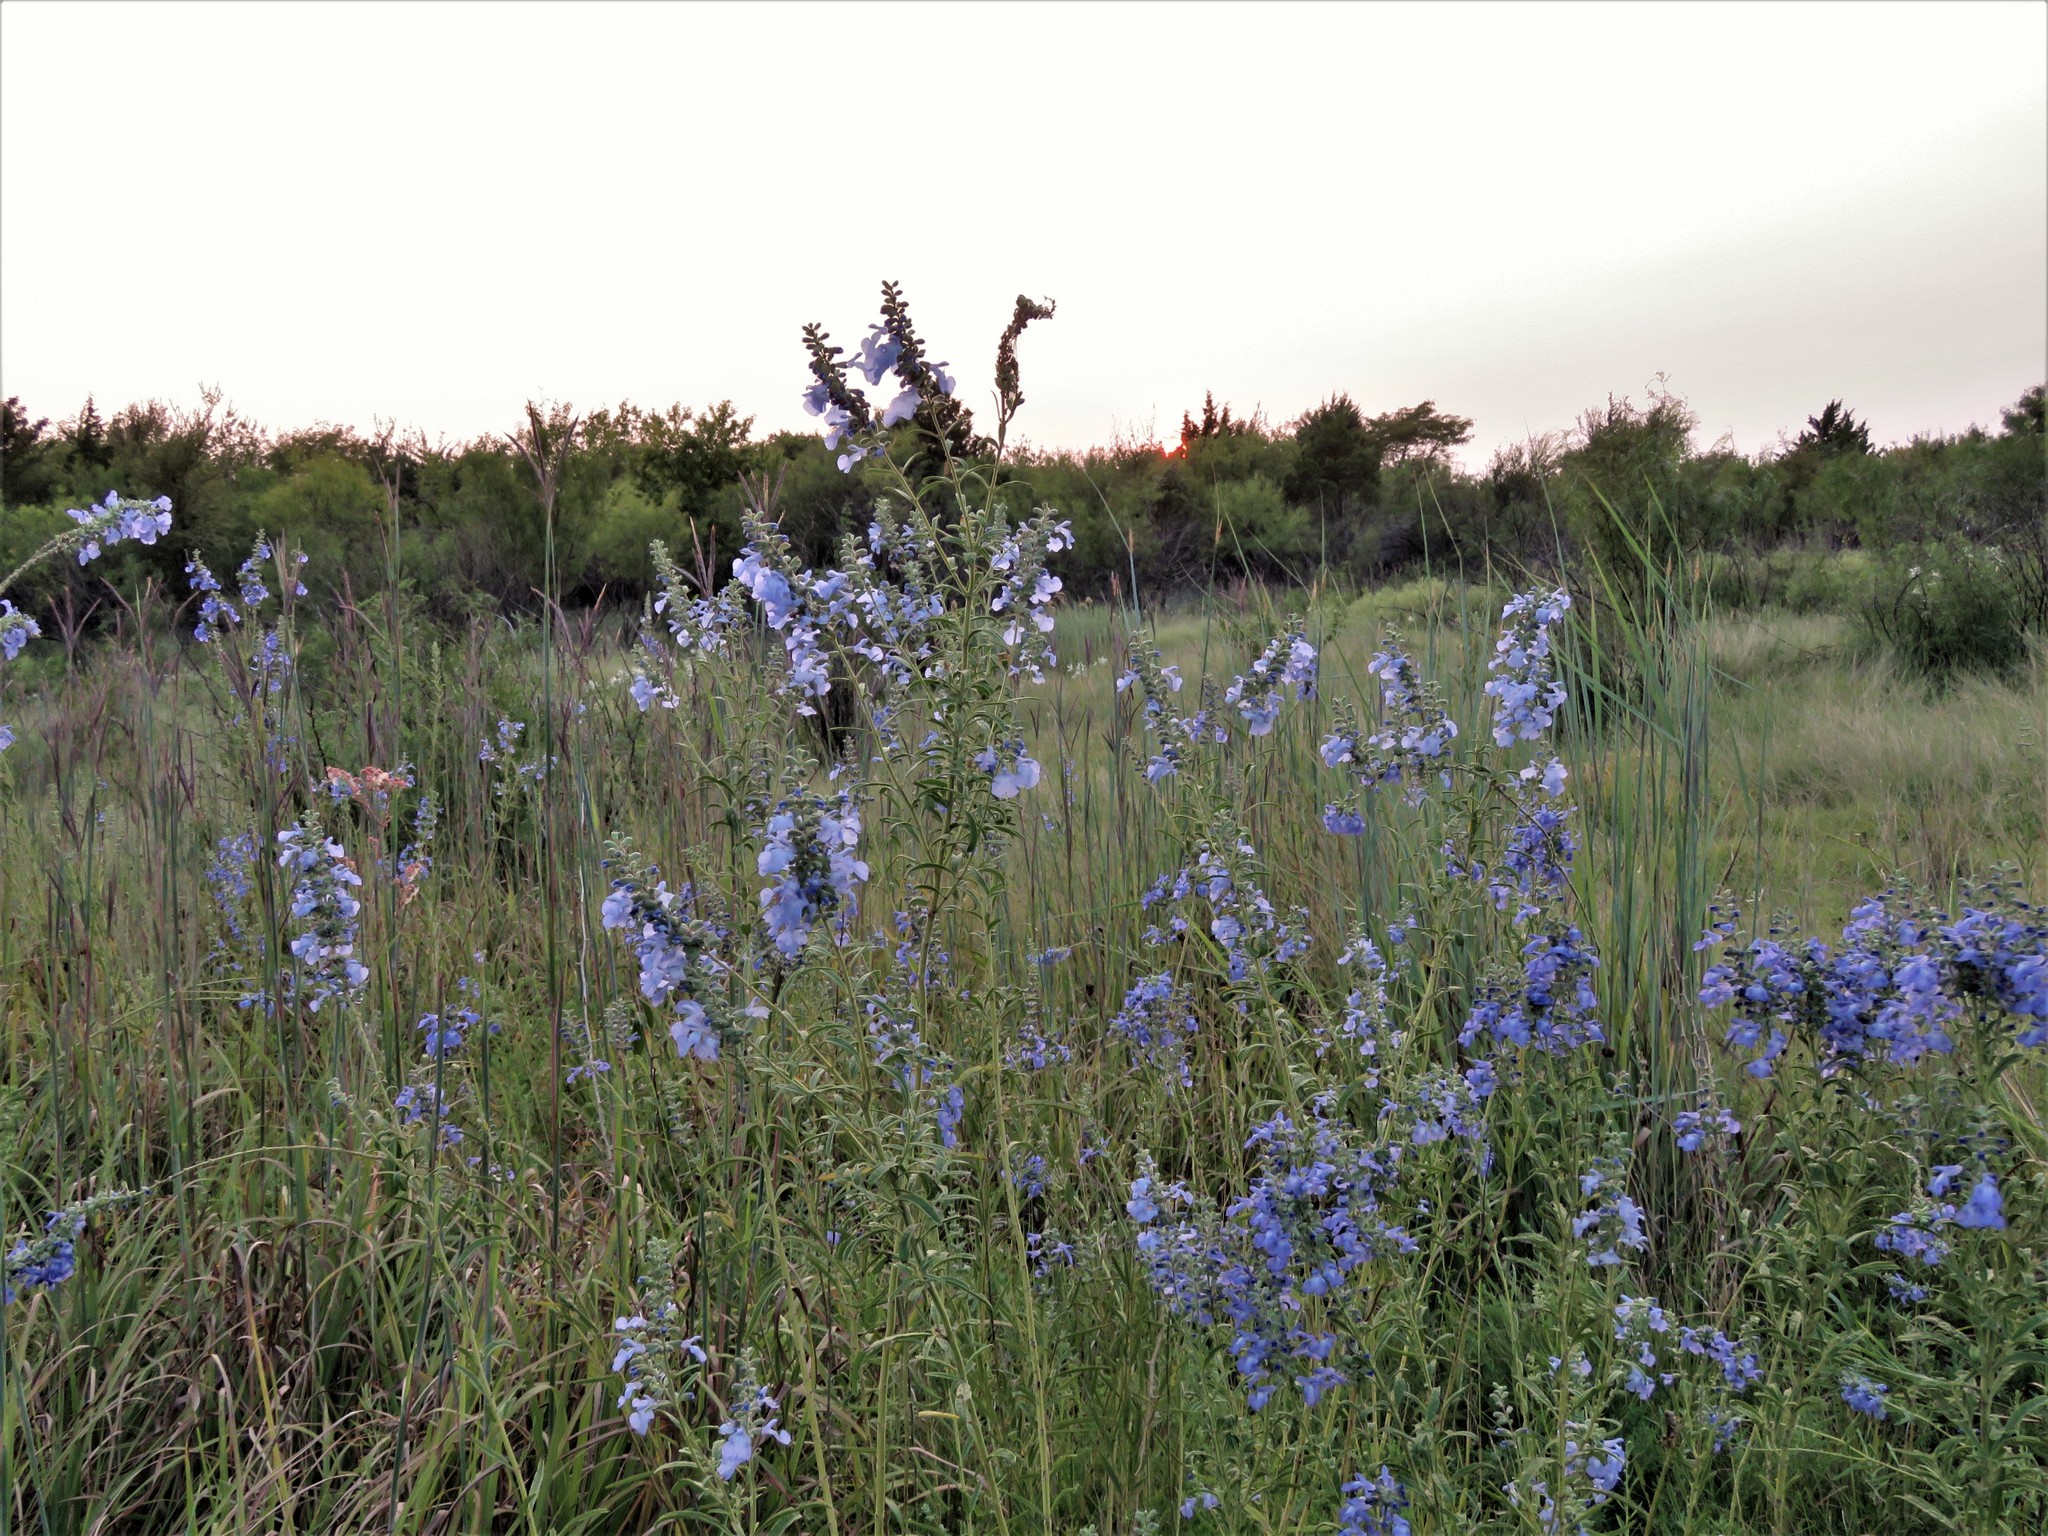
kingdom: Plantae
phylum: Tracheophyta
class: Magnoliopsida
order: Lamiales
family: Lamiaceae
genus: Salvia
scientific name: Salvia azurea
